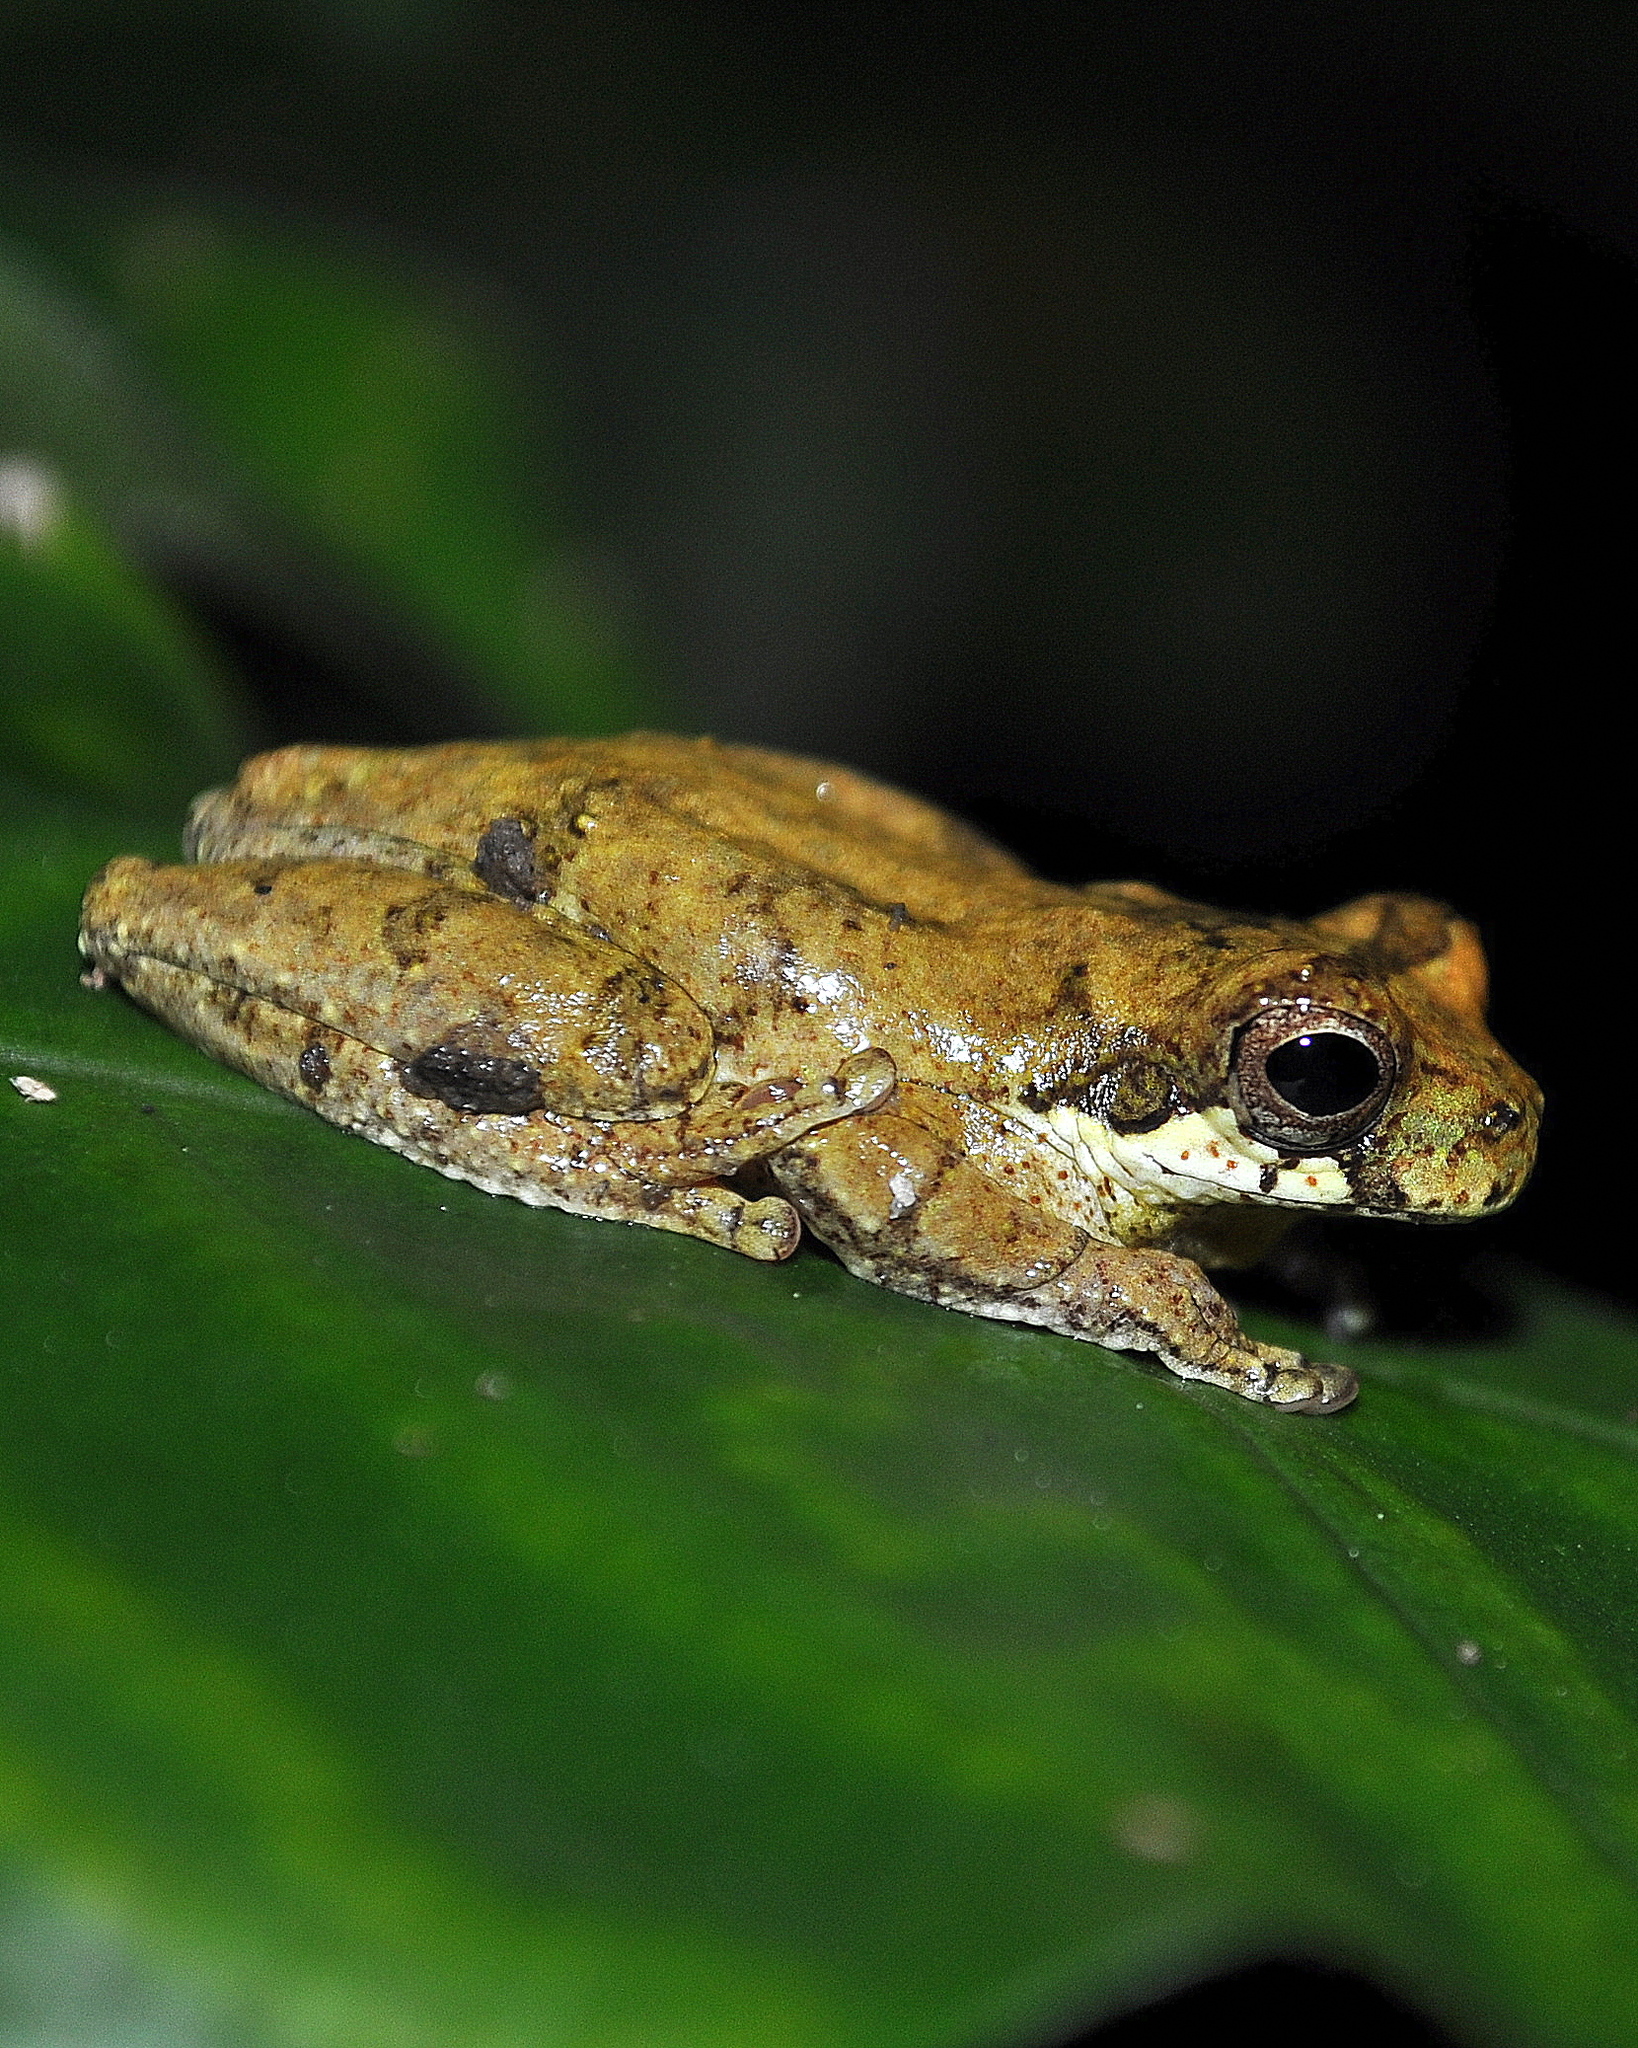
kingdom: Animalia
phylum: Chordata
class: Amphibia
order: Anura
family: Hylidae
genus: Dendropsophus
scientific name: Dendropsophus microps
